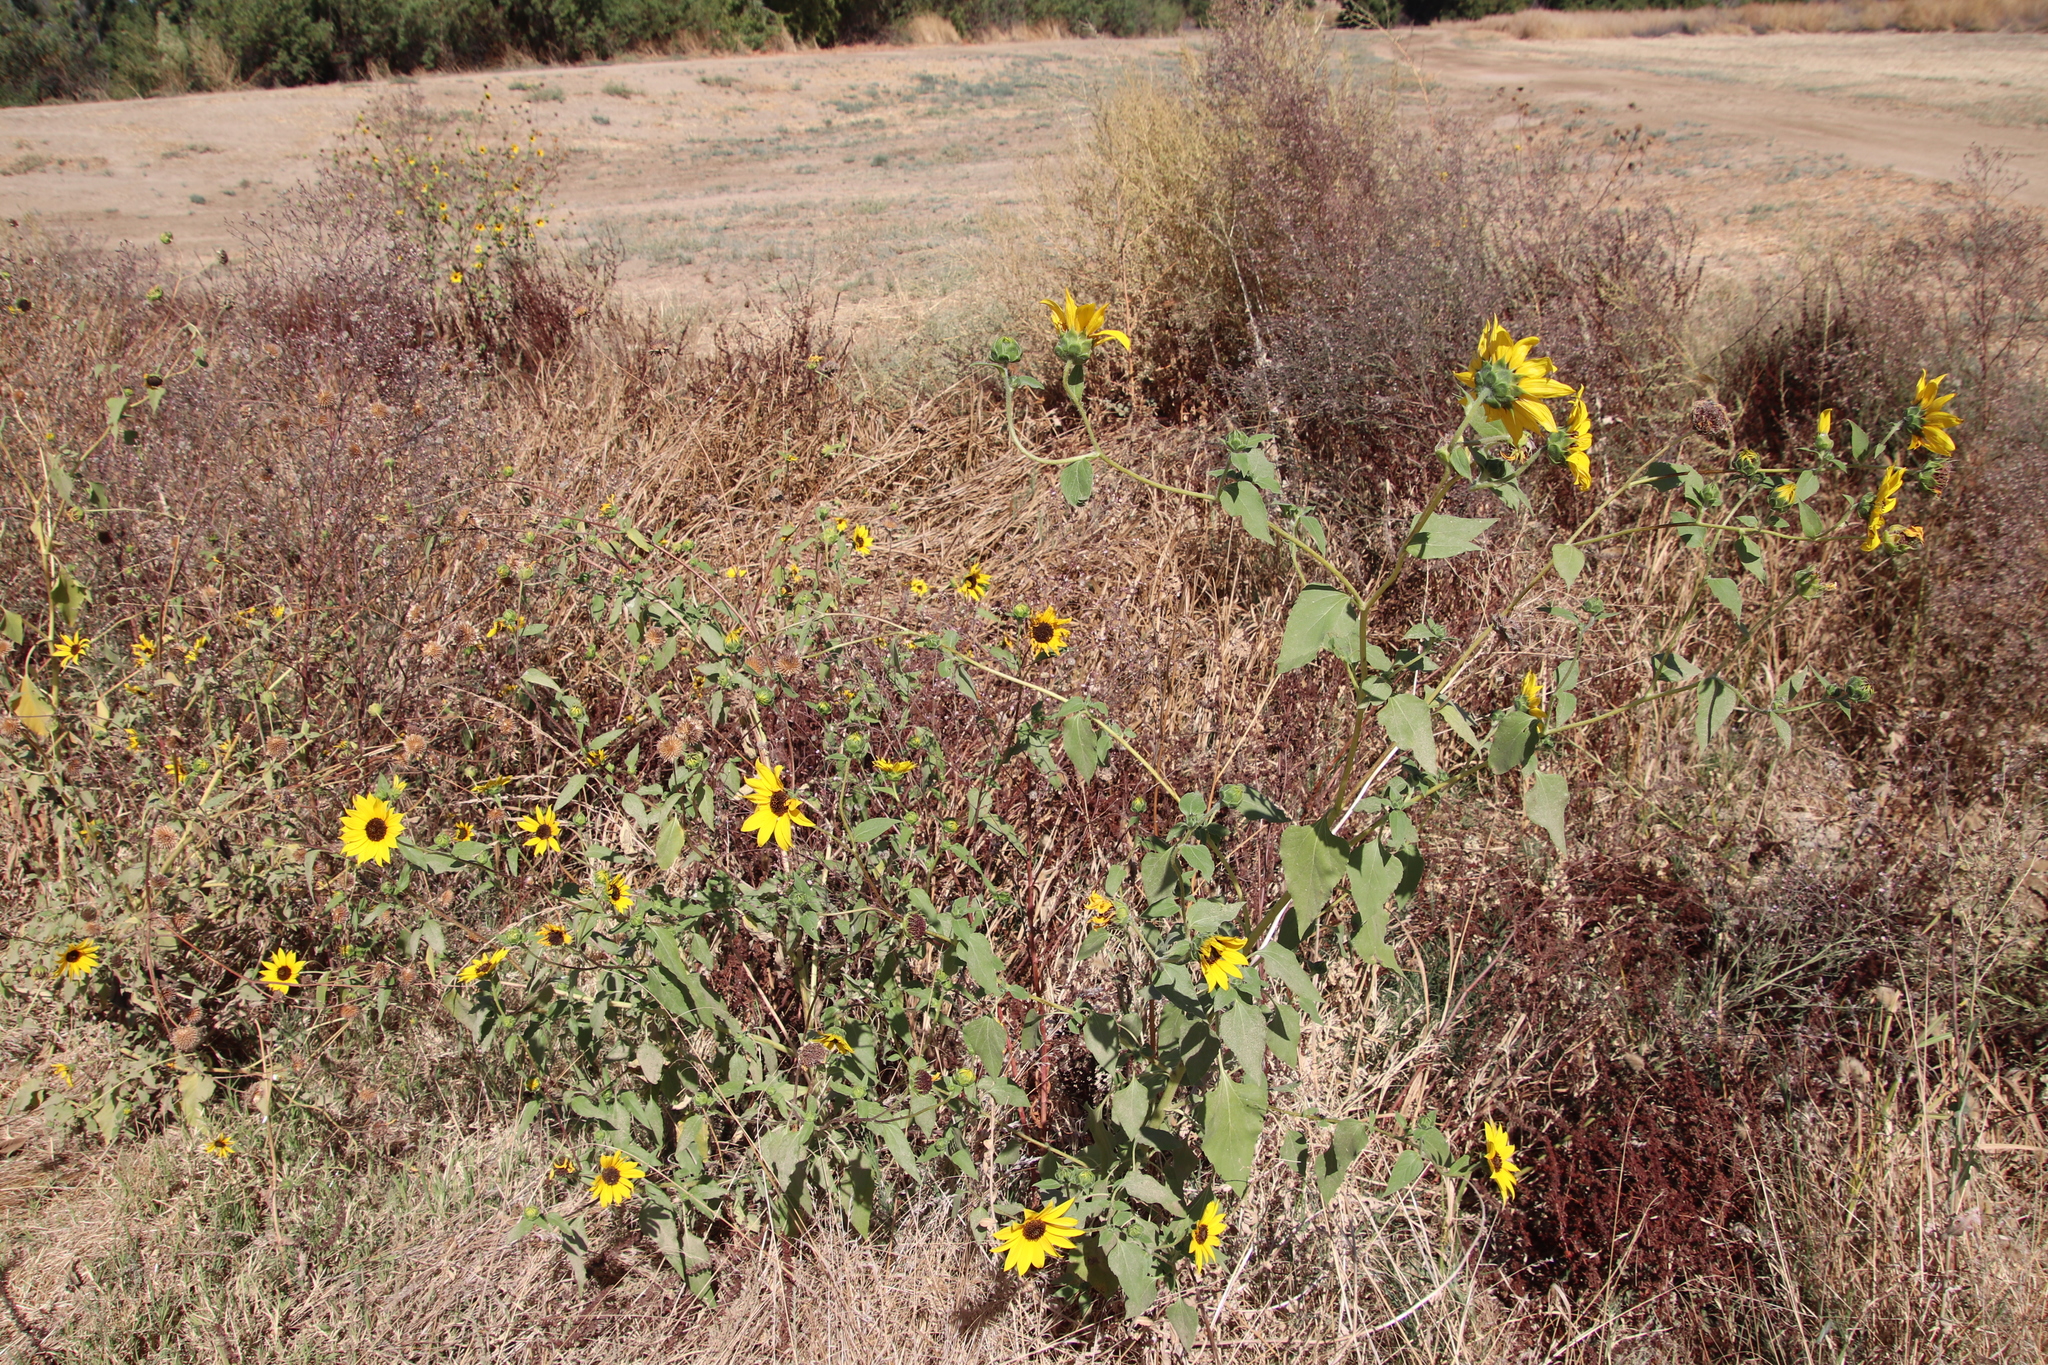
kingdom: Plantae
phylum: Tracheophyta
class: Magnoliopsida
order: Asterales
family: Asteraceae
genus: Helianthus
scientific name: Helianthus annuus
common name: Sunflower
